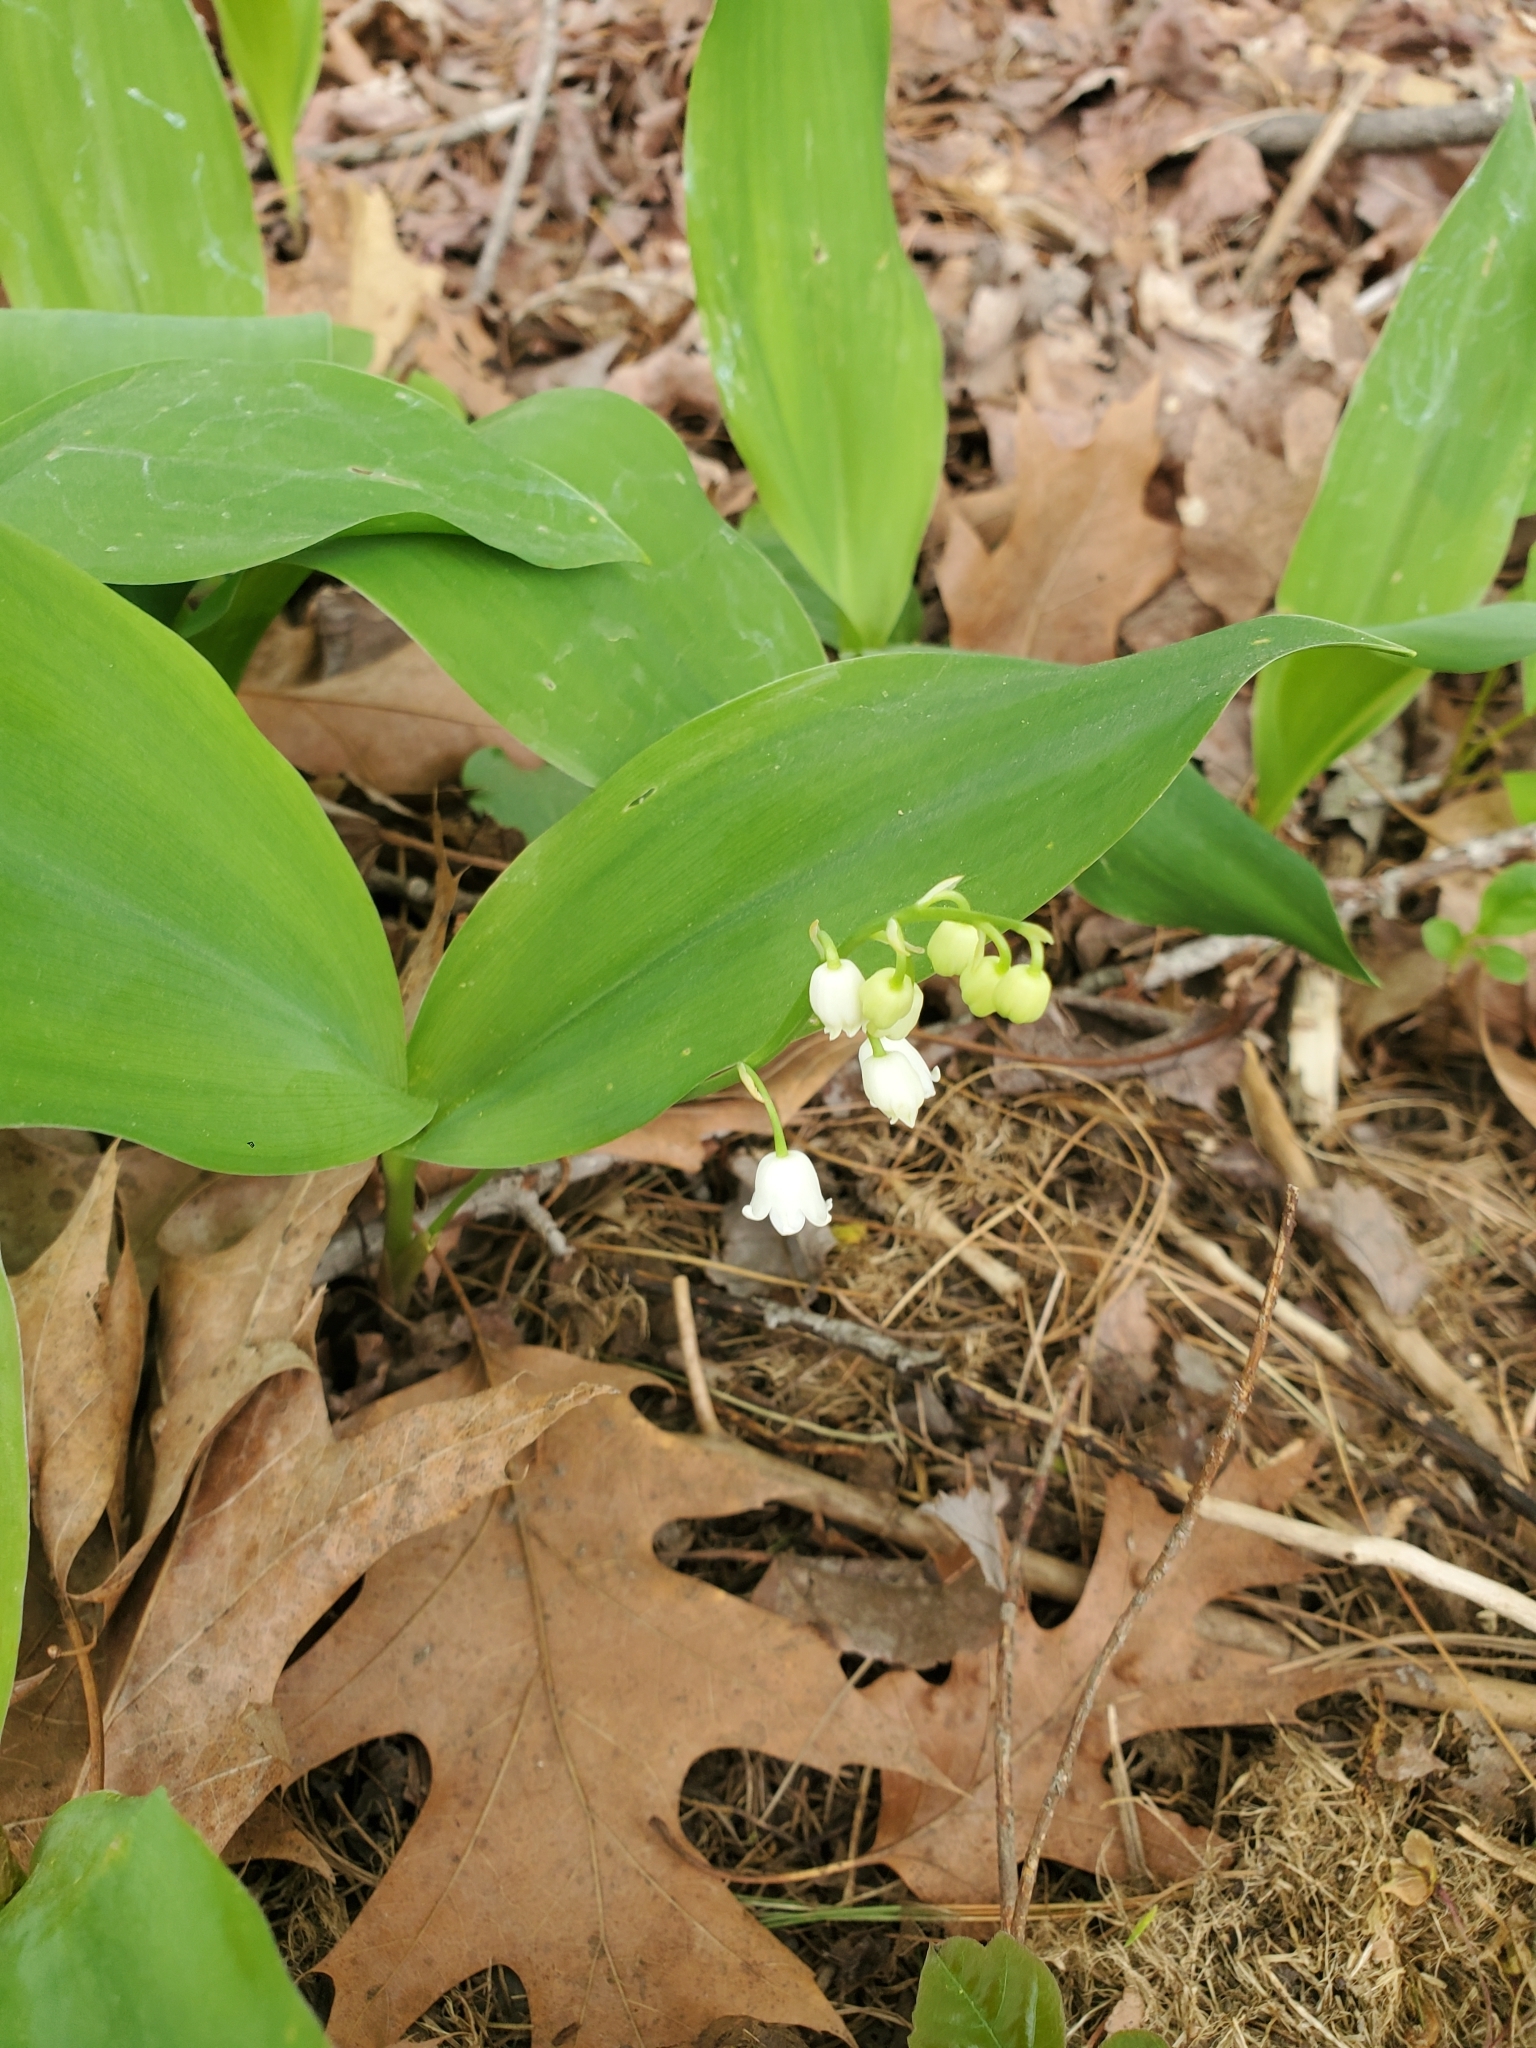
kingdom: Plantae
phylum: Tracheophyta
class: Liliopsida
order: Asparagales
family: Asparagaceae
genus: Convallaria
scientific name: Convallaria majalis
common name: Lily-of-the-valley
